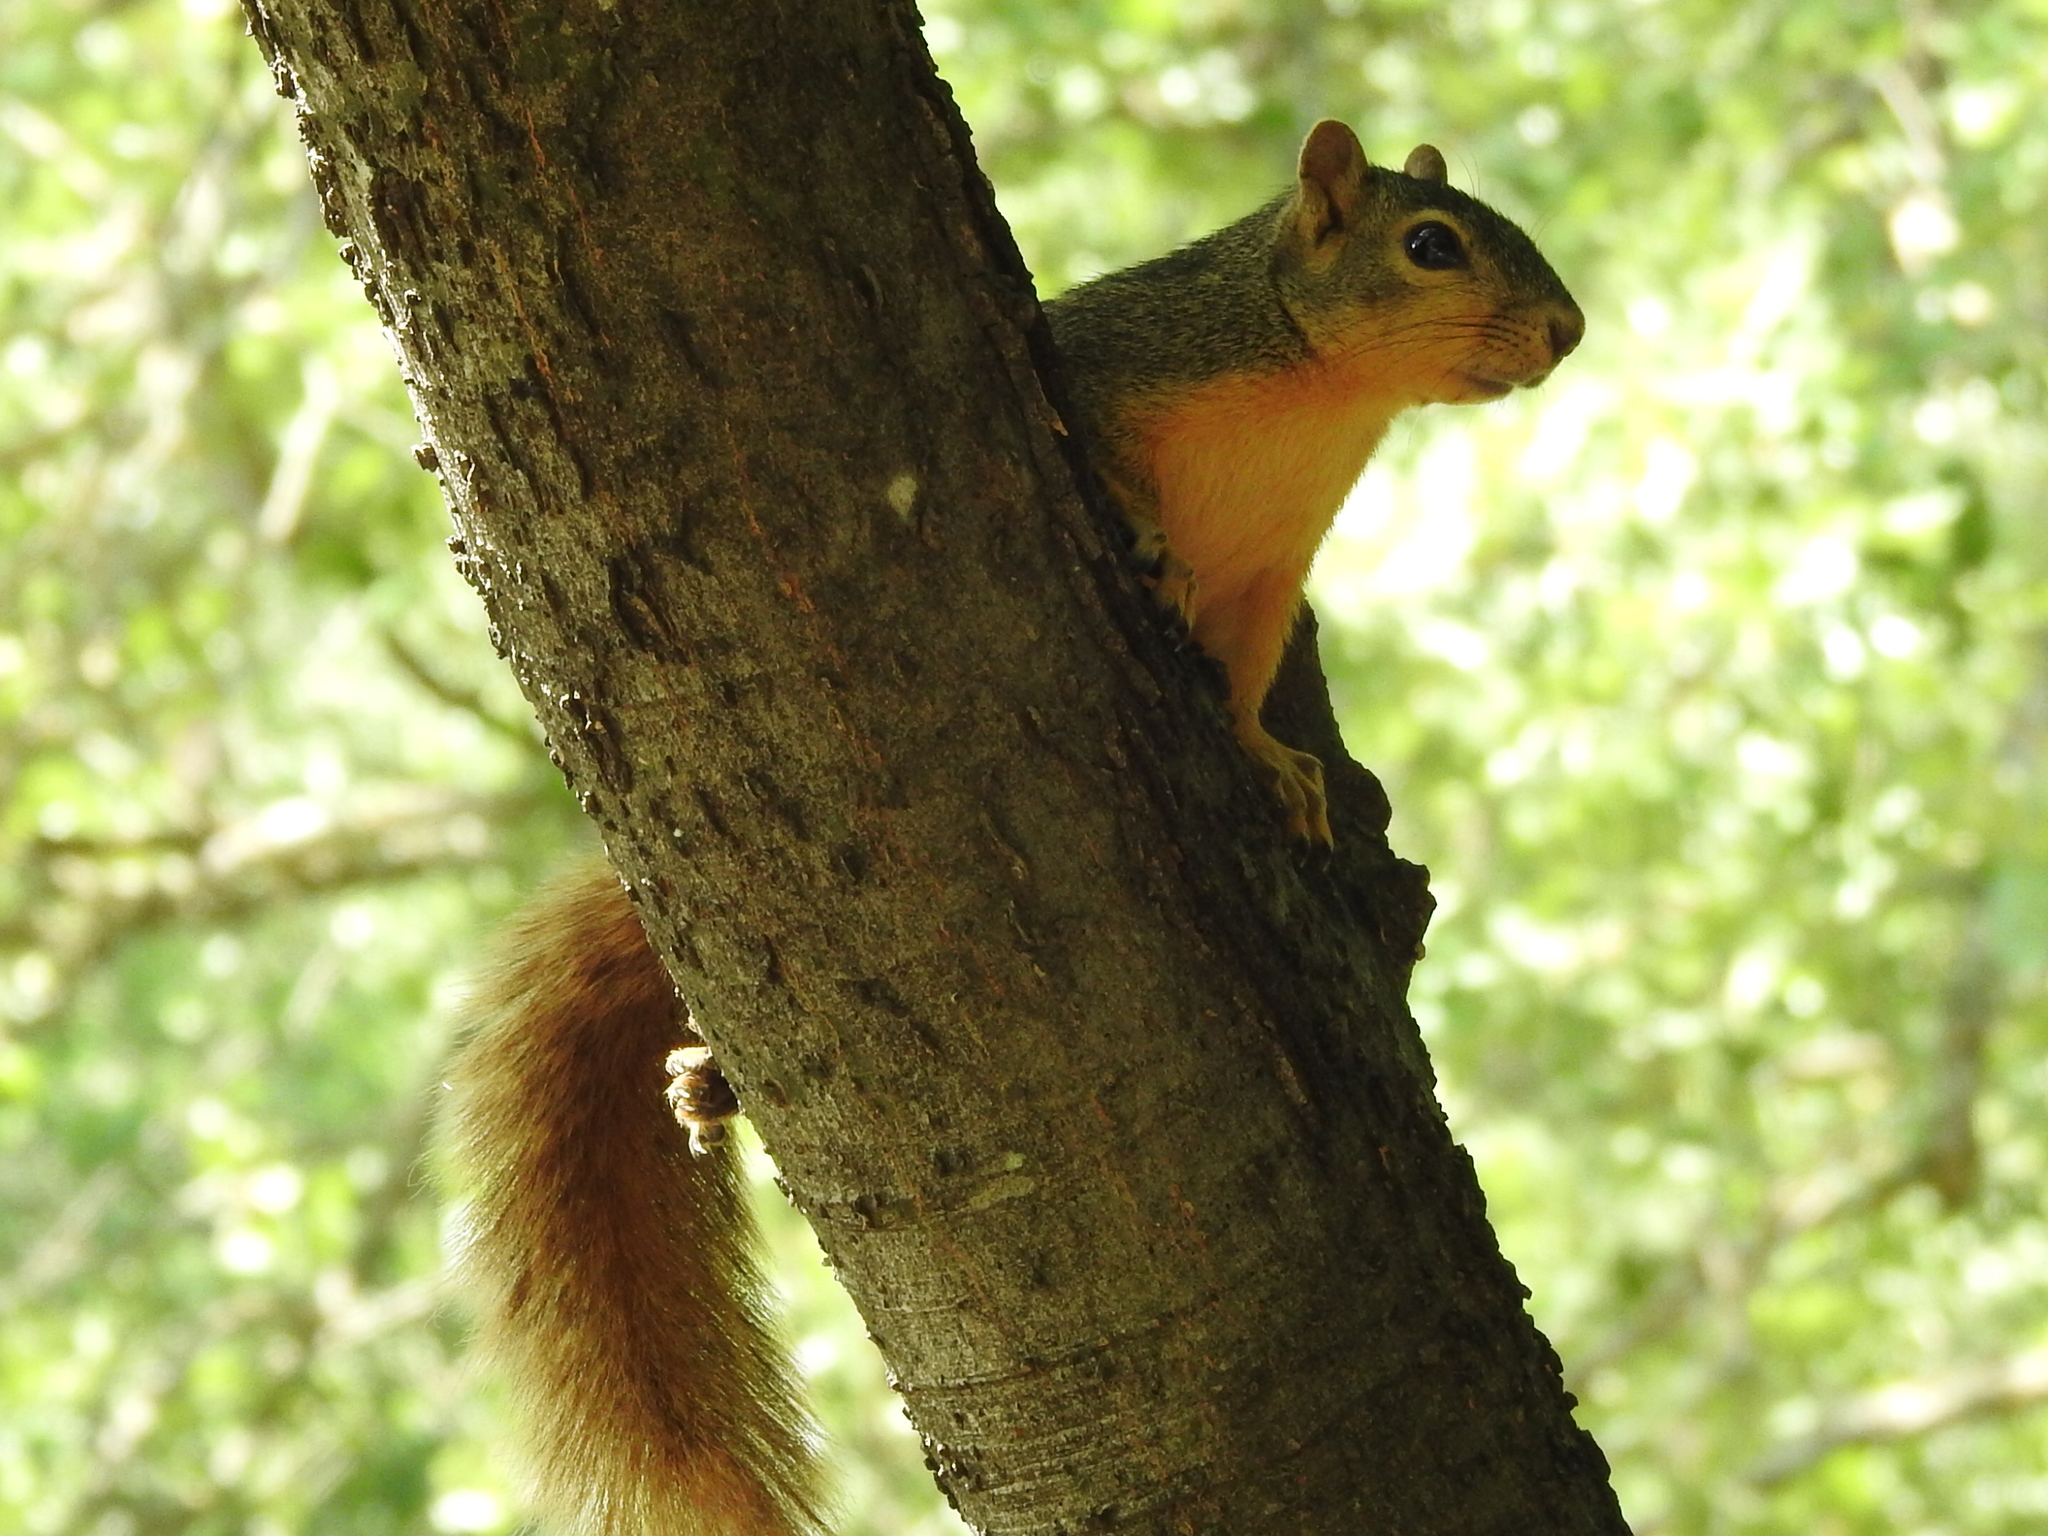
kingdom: Animalia
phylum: Chordata
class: Mammalia
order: Rodentia
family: Sciuridae
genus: Sciurus
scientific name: Sciurus niger
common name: Fox squirrel
